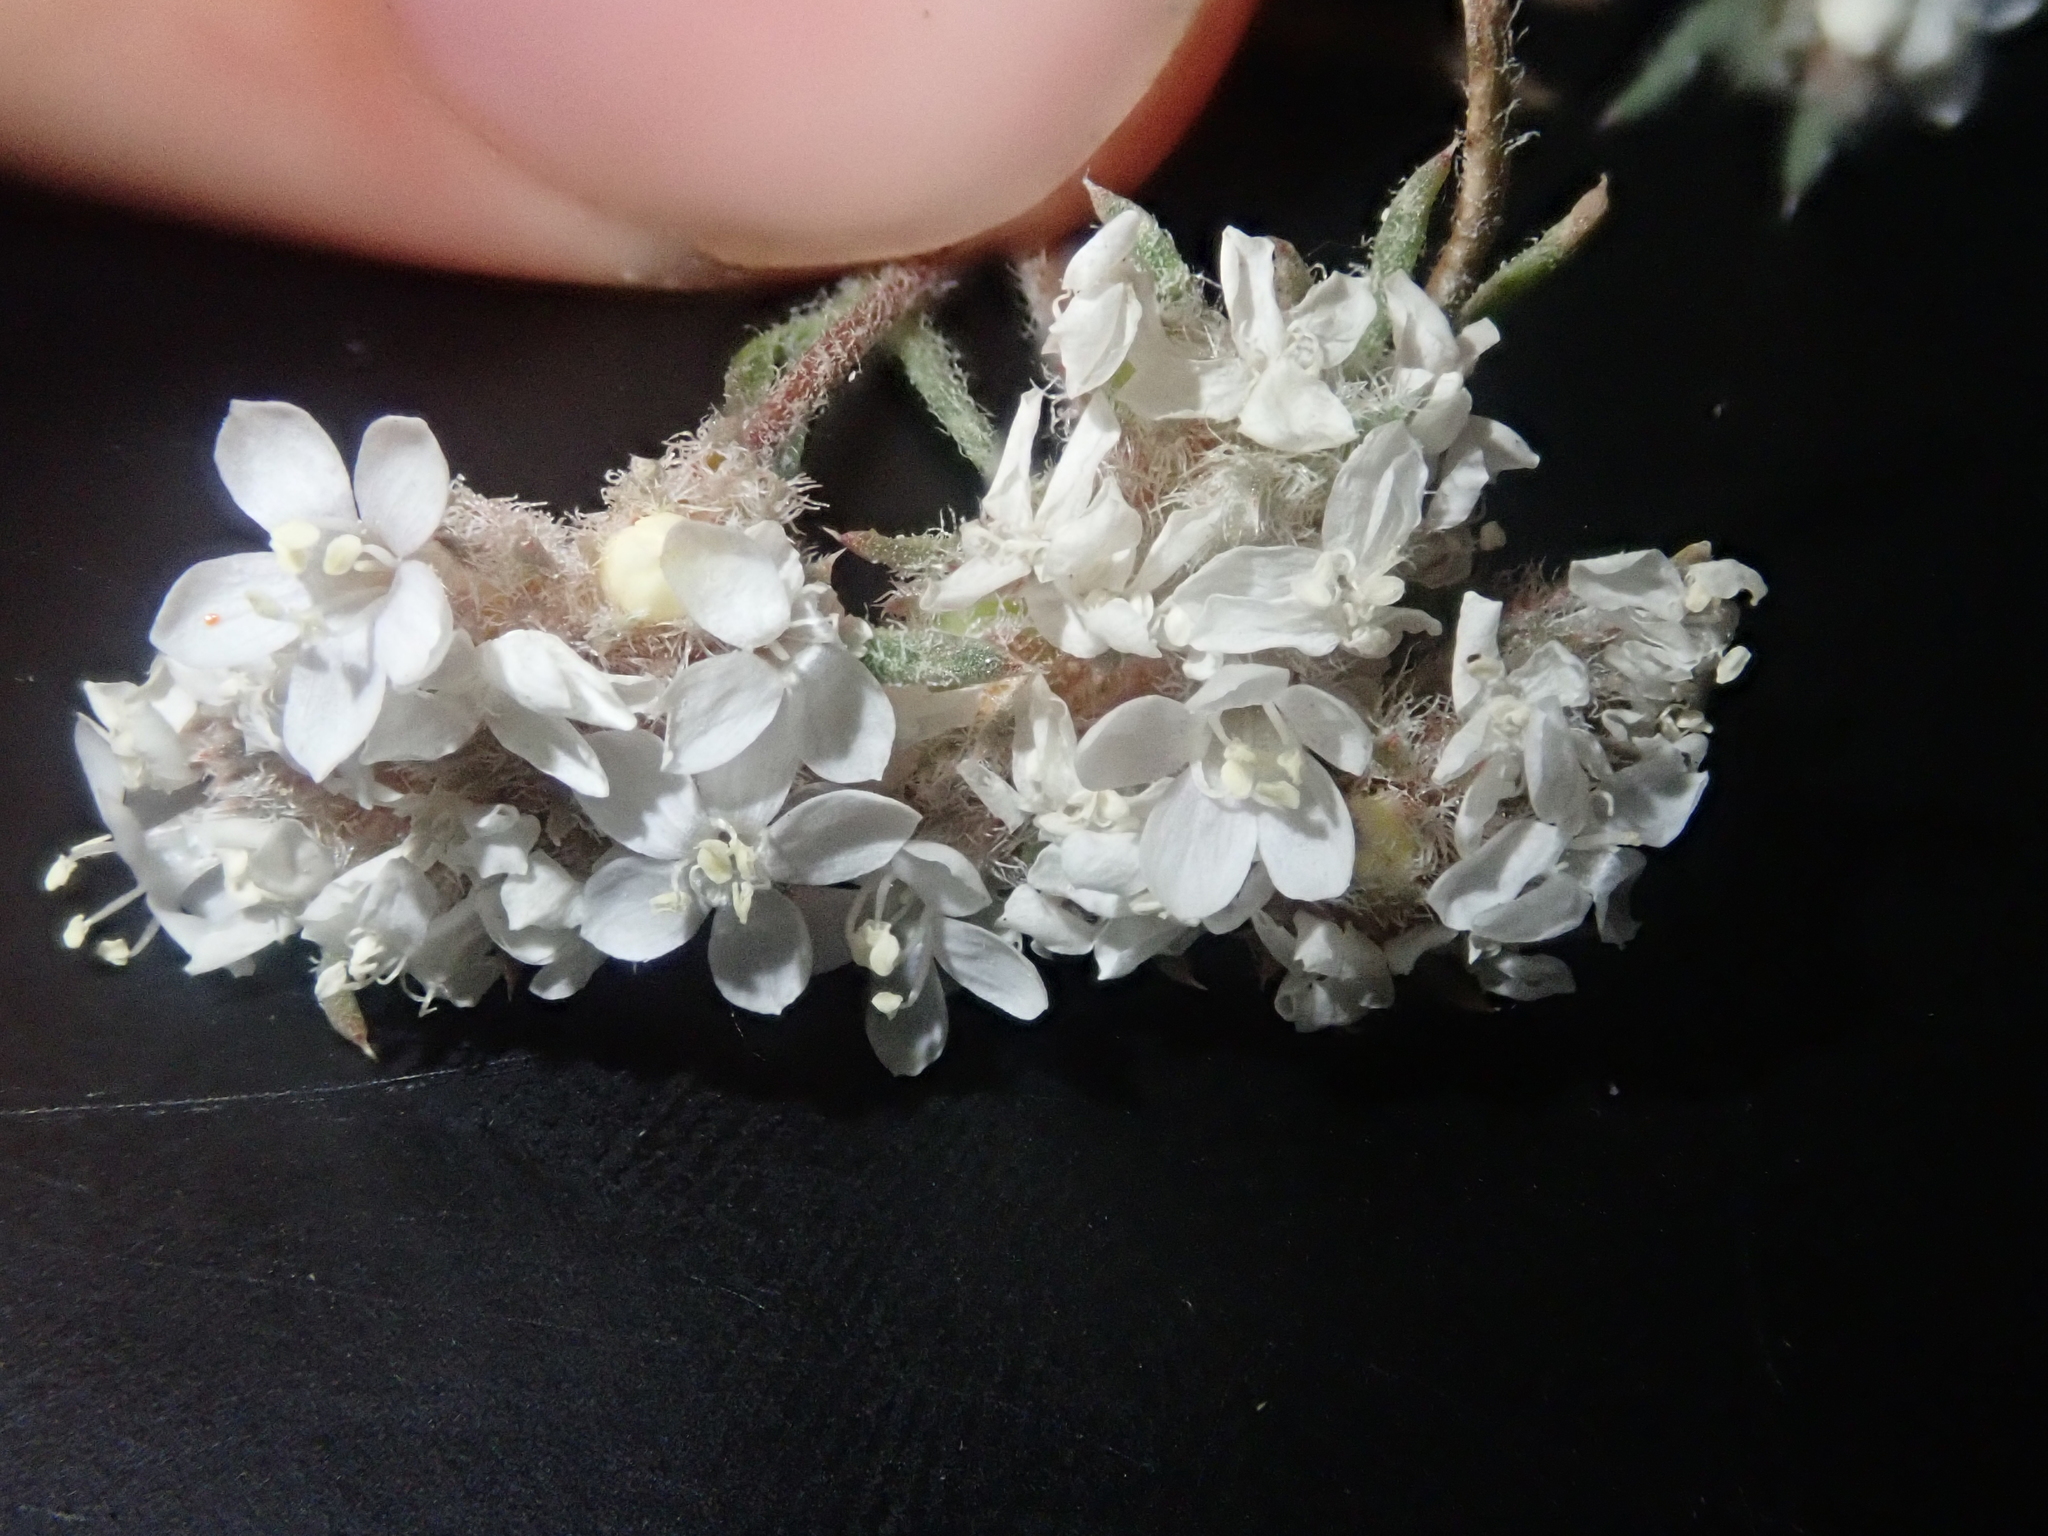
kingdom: Plantae
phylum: Tracheophyta
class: Magnoliopsida
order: Ericales
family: Polemoniaceae
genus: Ipomopsis
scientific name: Ipomopsis congesta
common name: Ball-head gilia
